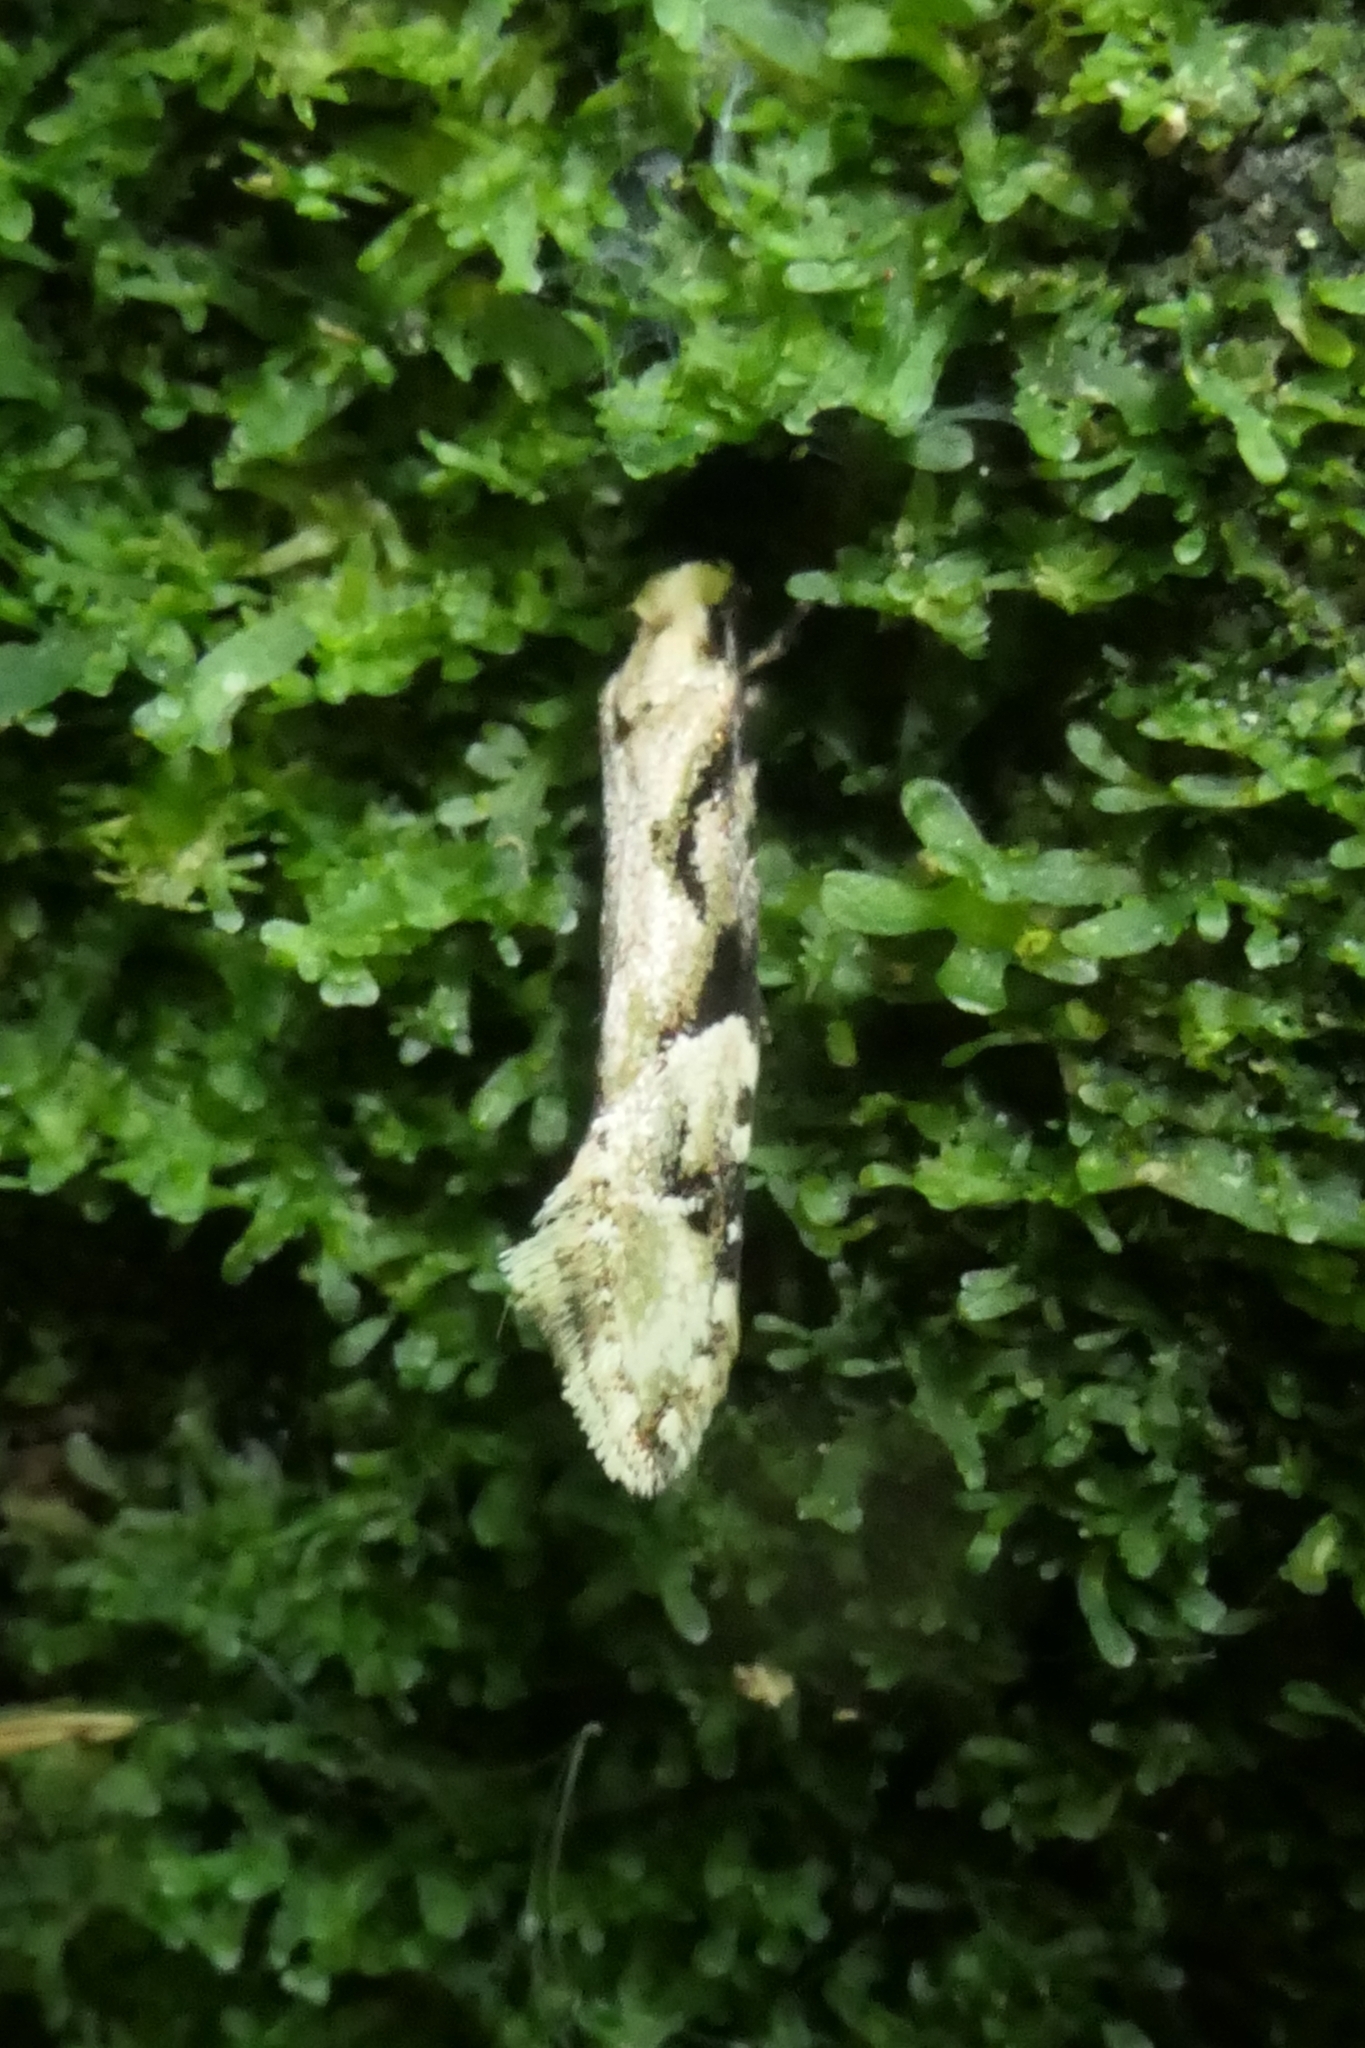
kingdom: Animalia
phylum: Arthropoda
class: Insecta
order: Lepidoptera
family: Tineidae
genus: Crypsitricha
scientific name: Crypsitricha mesotypa
